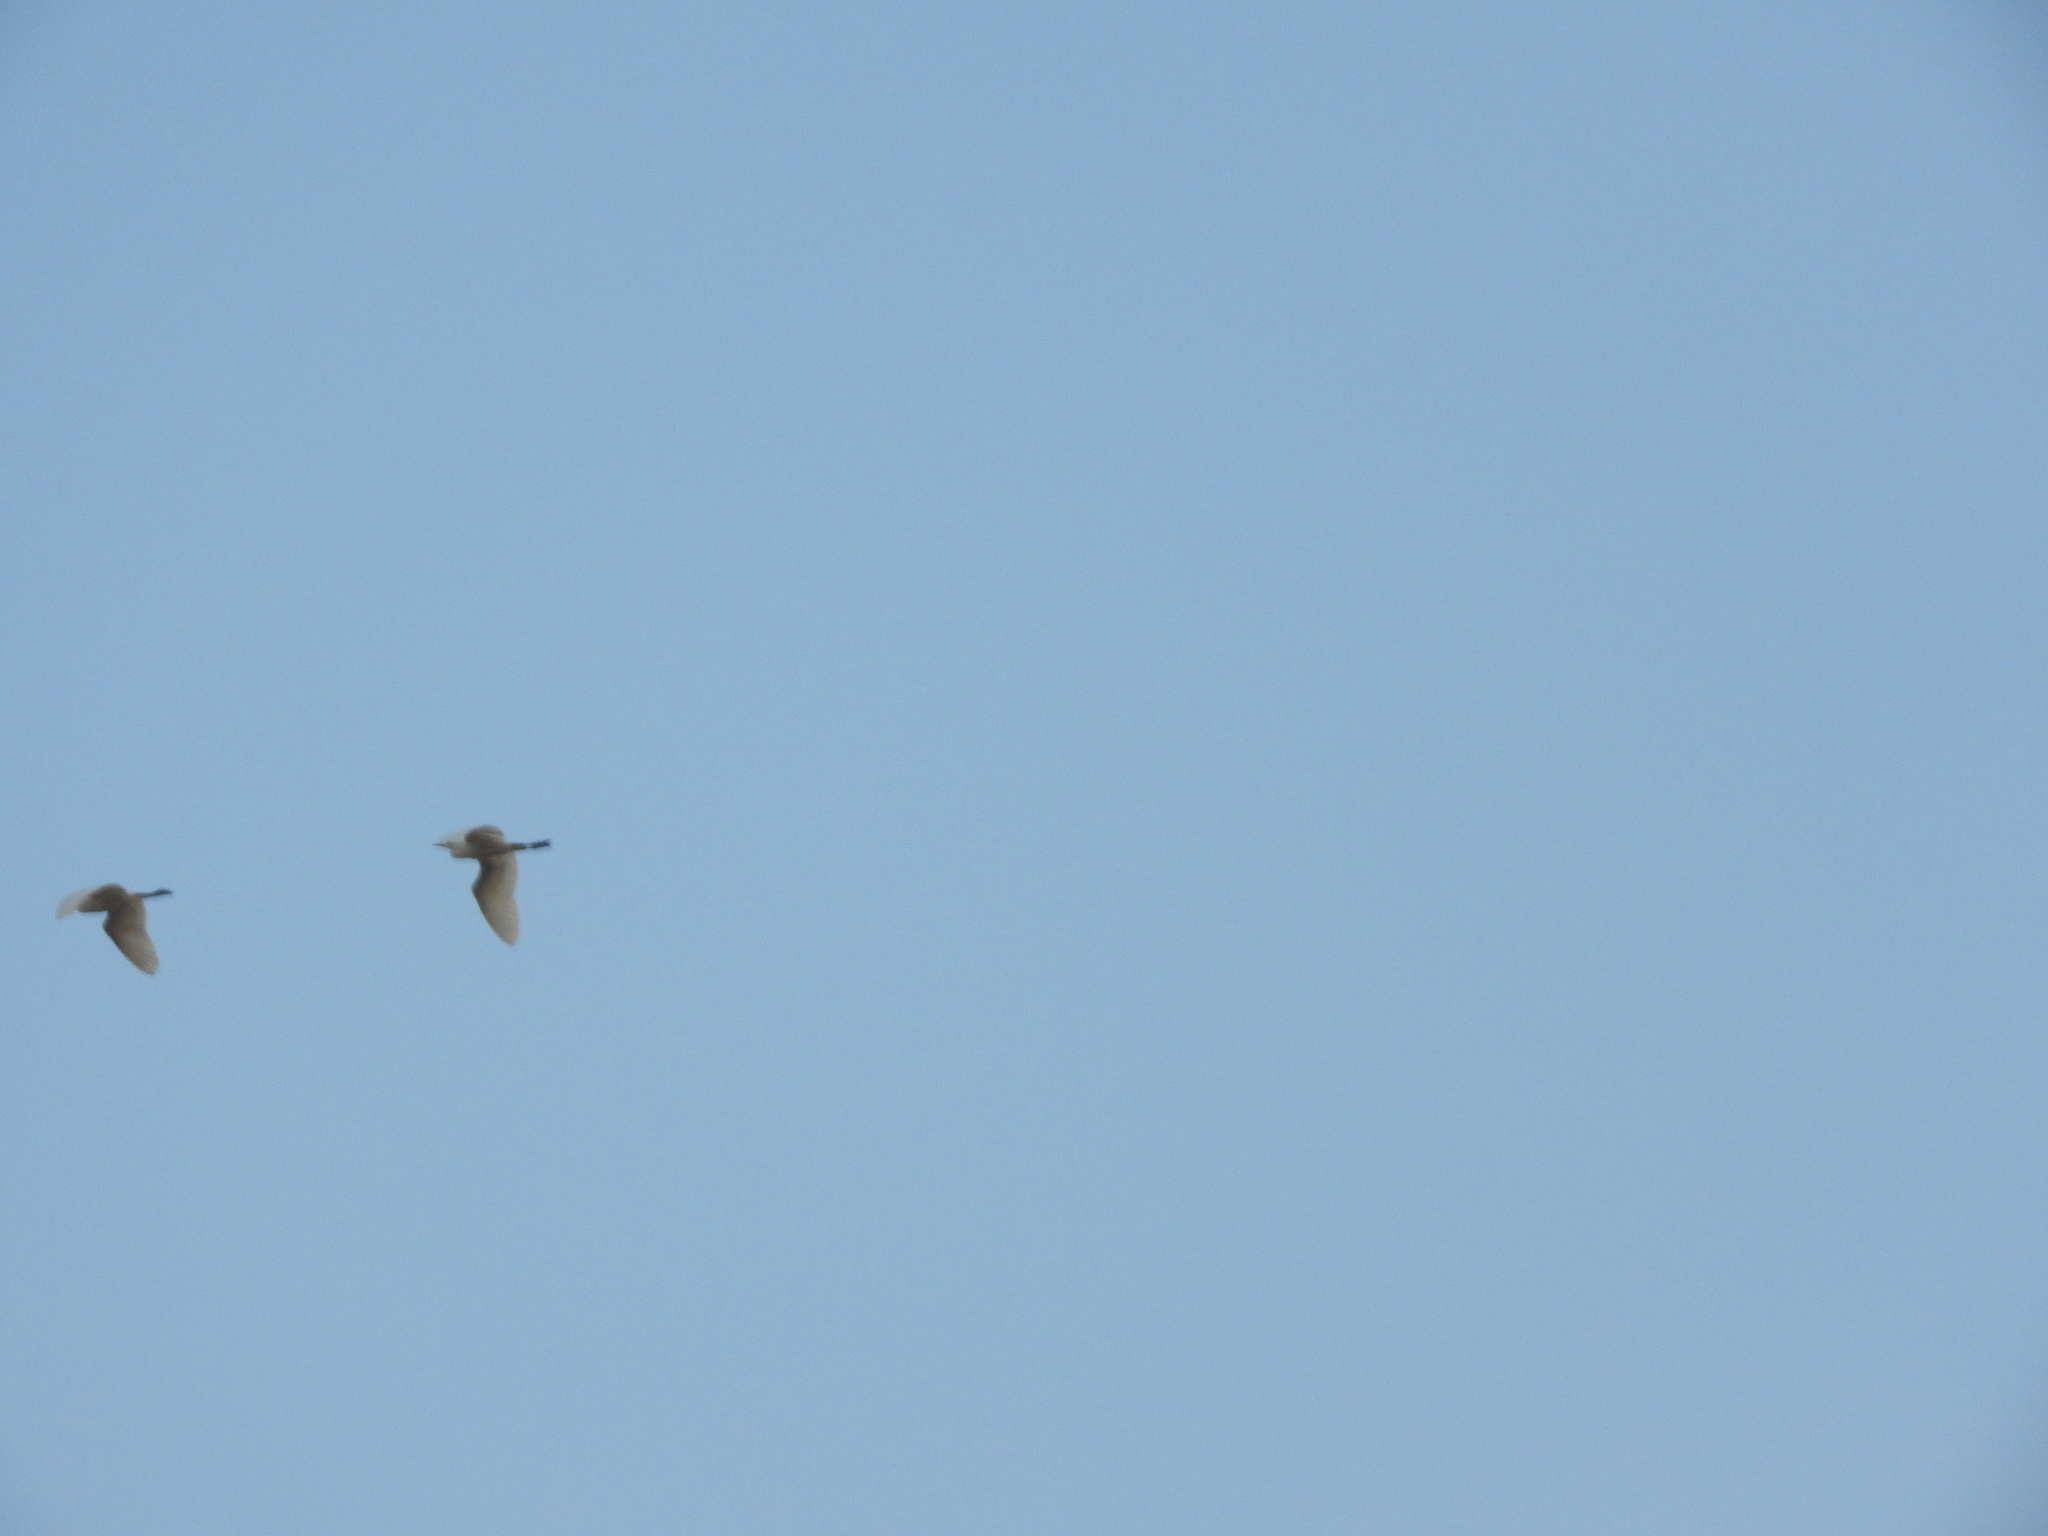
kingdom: Animalia
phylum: Chordata
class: Aves
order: Pelecaniformes
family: Ardeidae
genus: Bubulcus
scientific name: Bubulcus ibis
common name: Cattle egret
